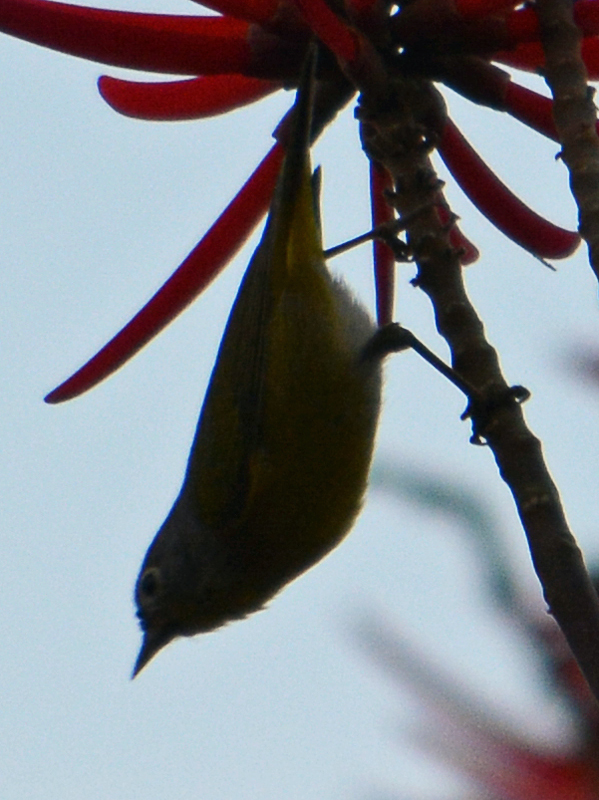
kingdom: Animalia
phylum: Chordata
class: Aves
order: Passeriformes
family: Parulidae
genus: Leiothlypis
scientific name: Leiothlypis ruficapilla
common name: Nashville warbler
